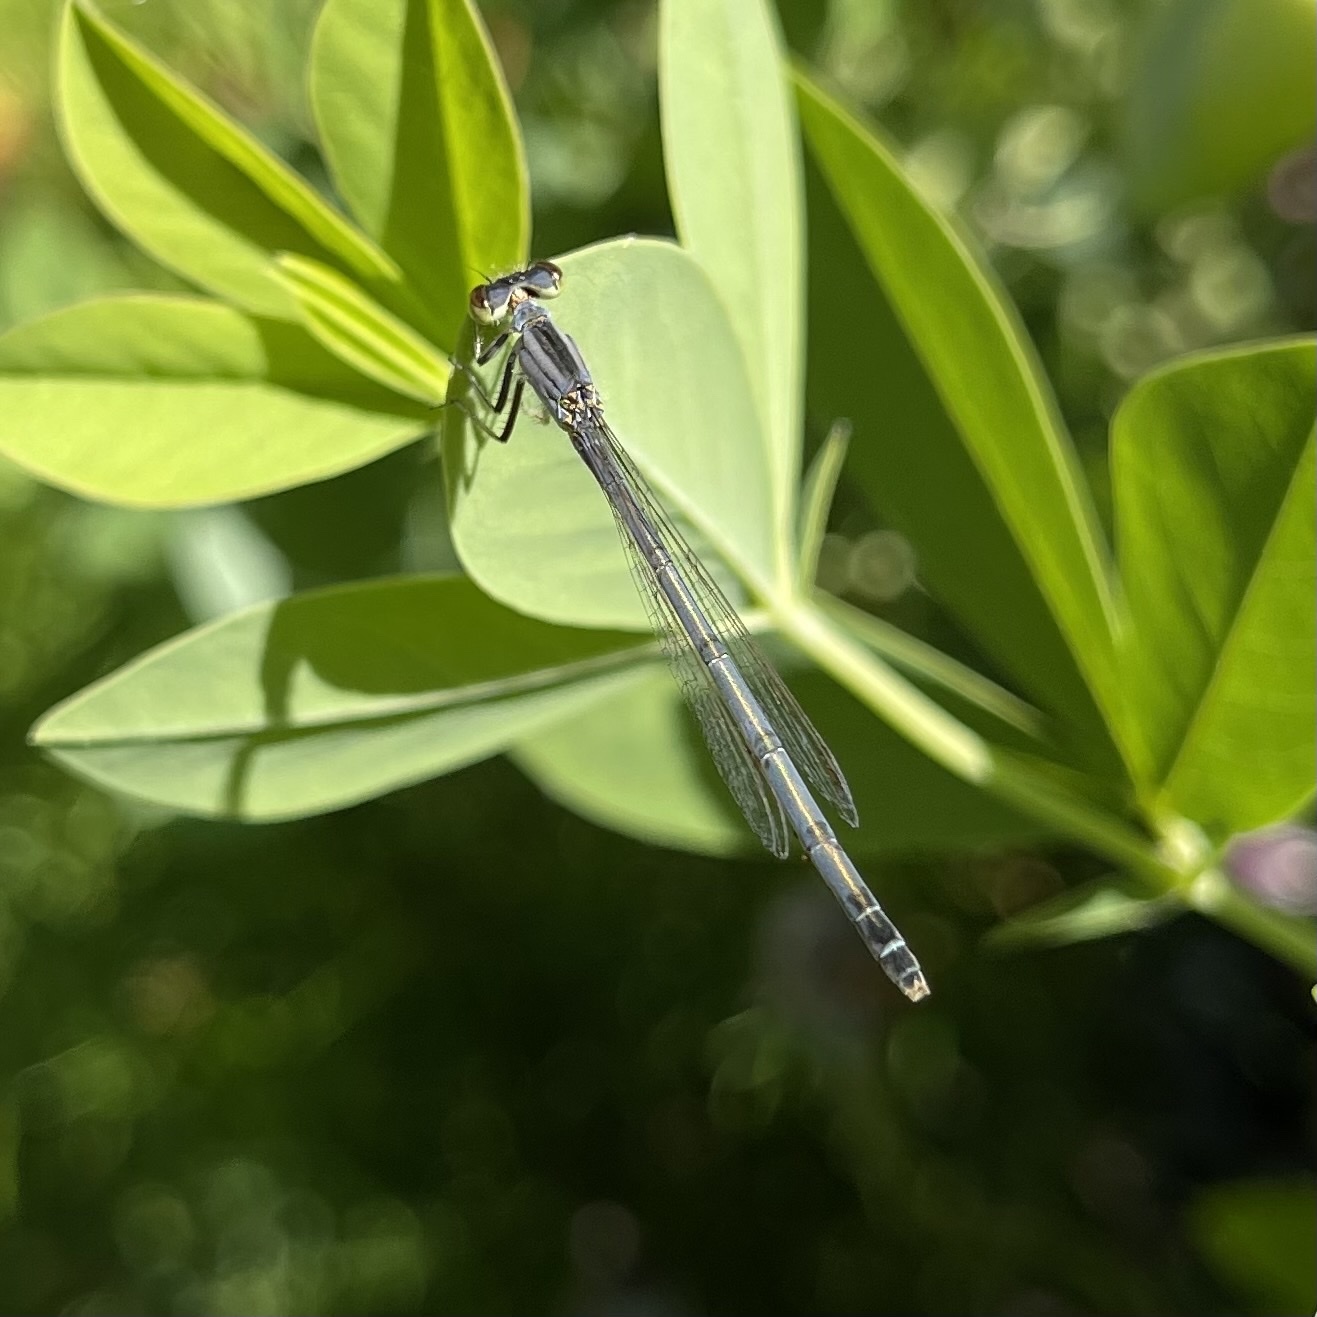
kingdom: Animalia
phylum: Arthropoda
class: Insecta
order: Odonata
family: Coenagrionidae
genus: Ischnura
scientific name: Ischnura verticalis
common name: Eastern forktail
